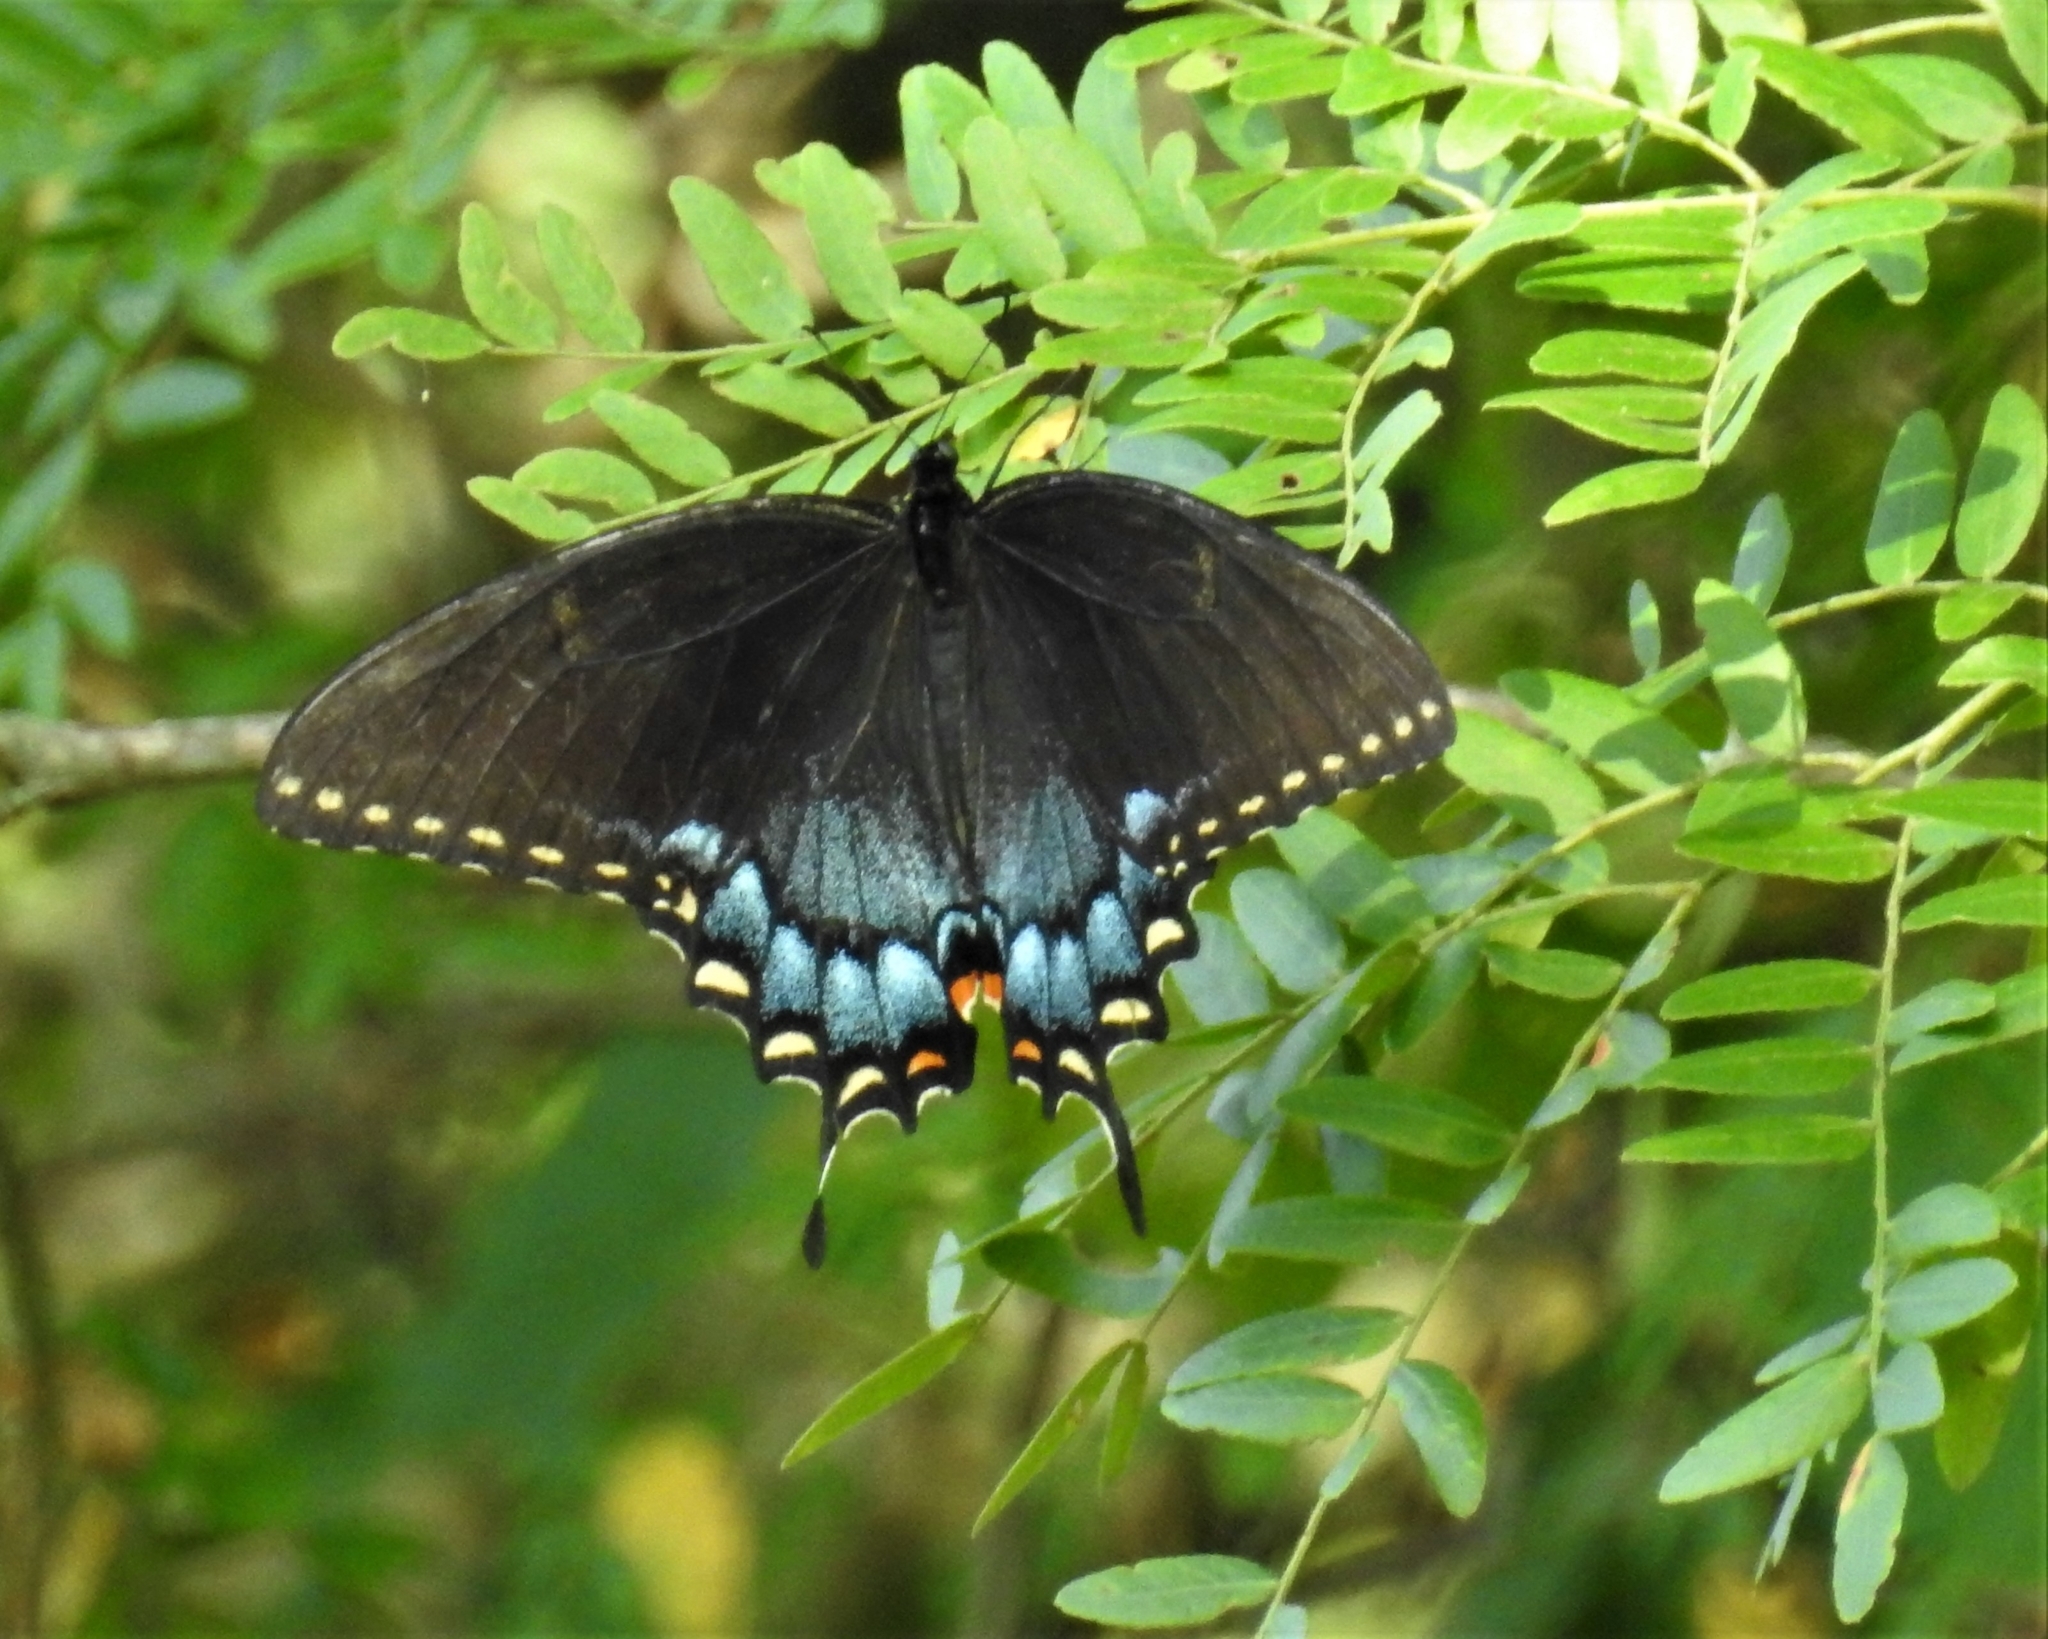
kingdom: Animalia
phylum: Arthropoda
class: Insecta
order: Lepidoptera
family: Papilionidae
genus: Papilio
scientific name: Papilio glaucus
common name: Tiger swallowtail
